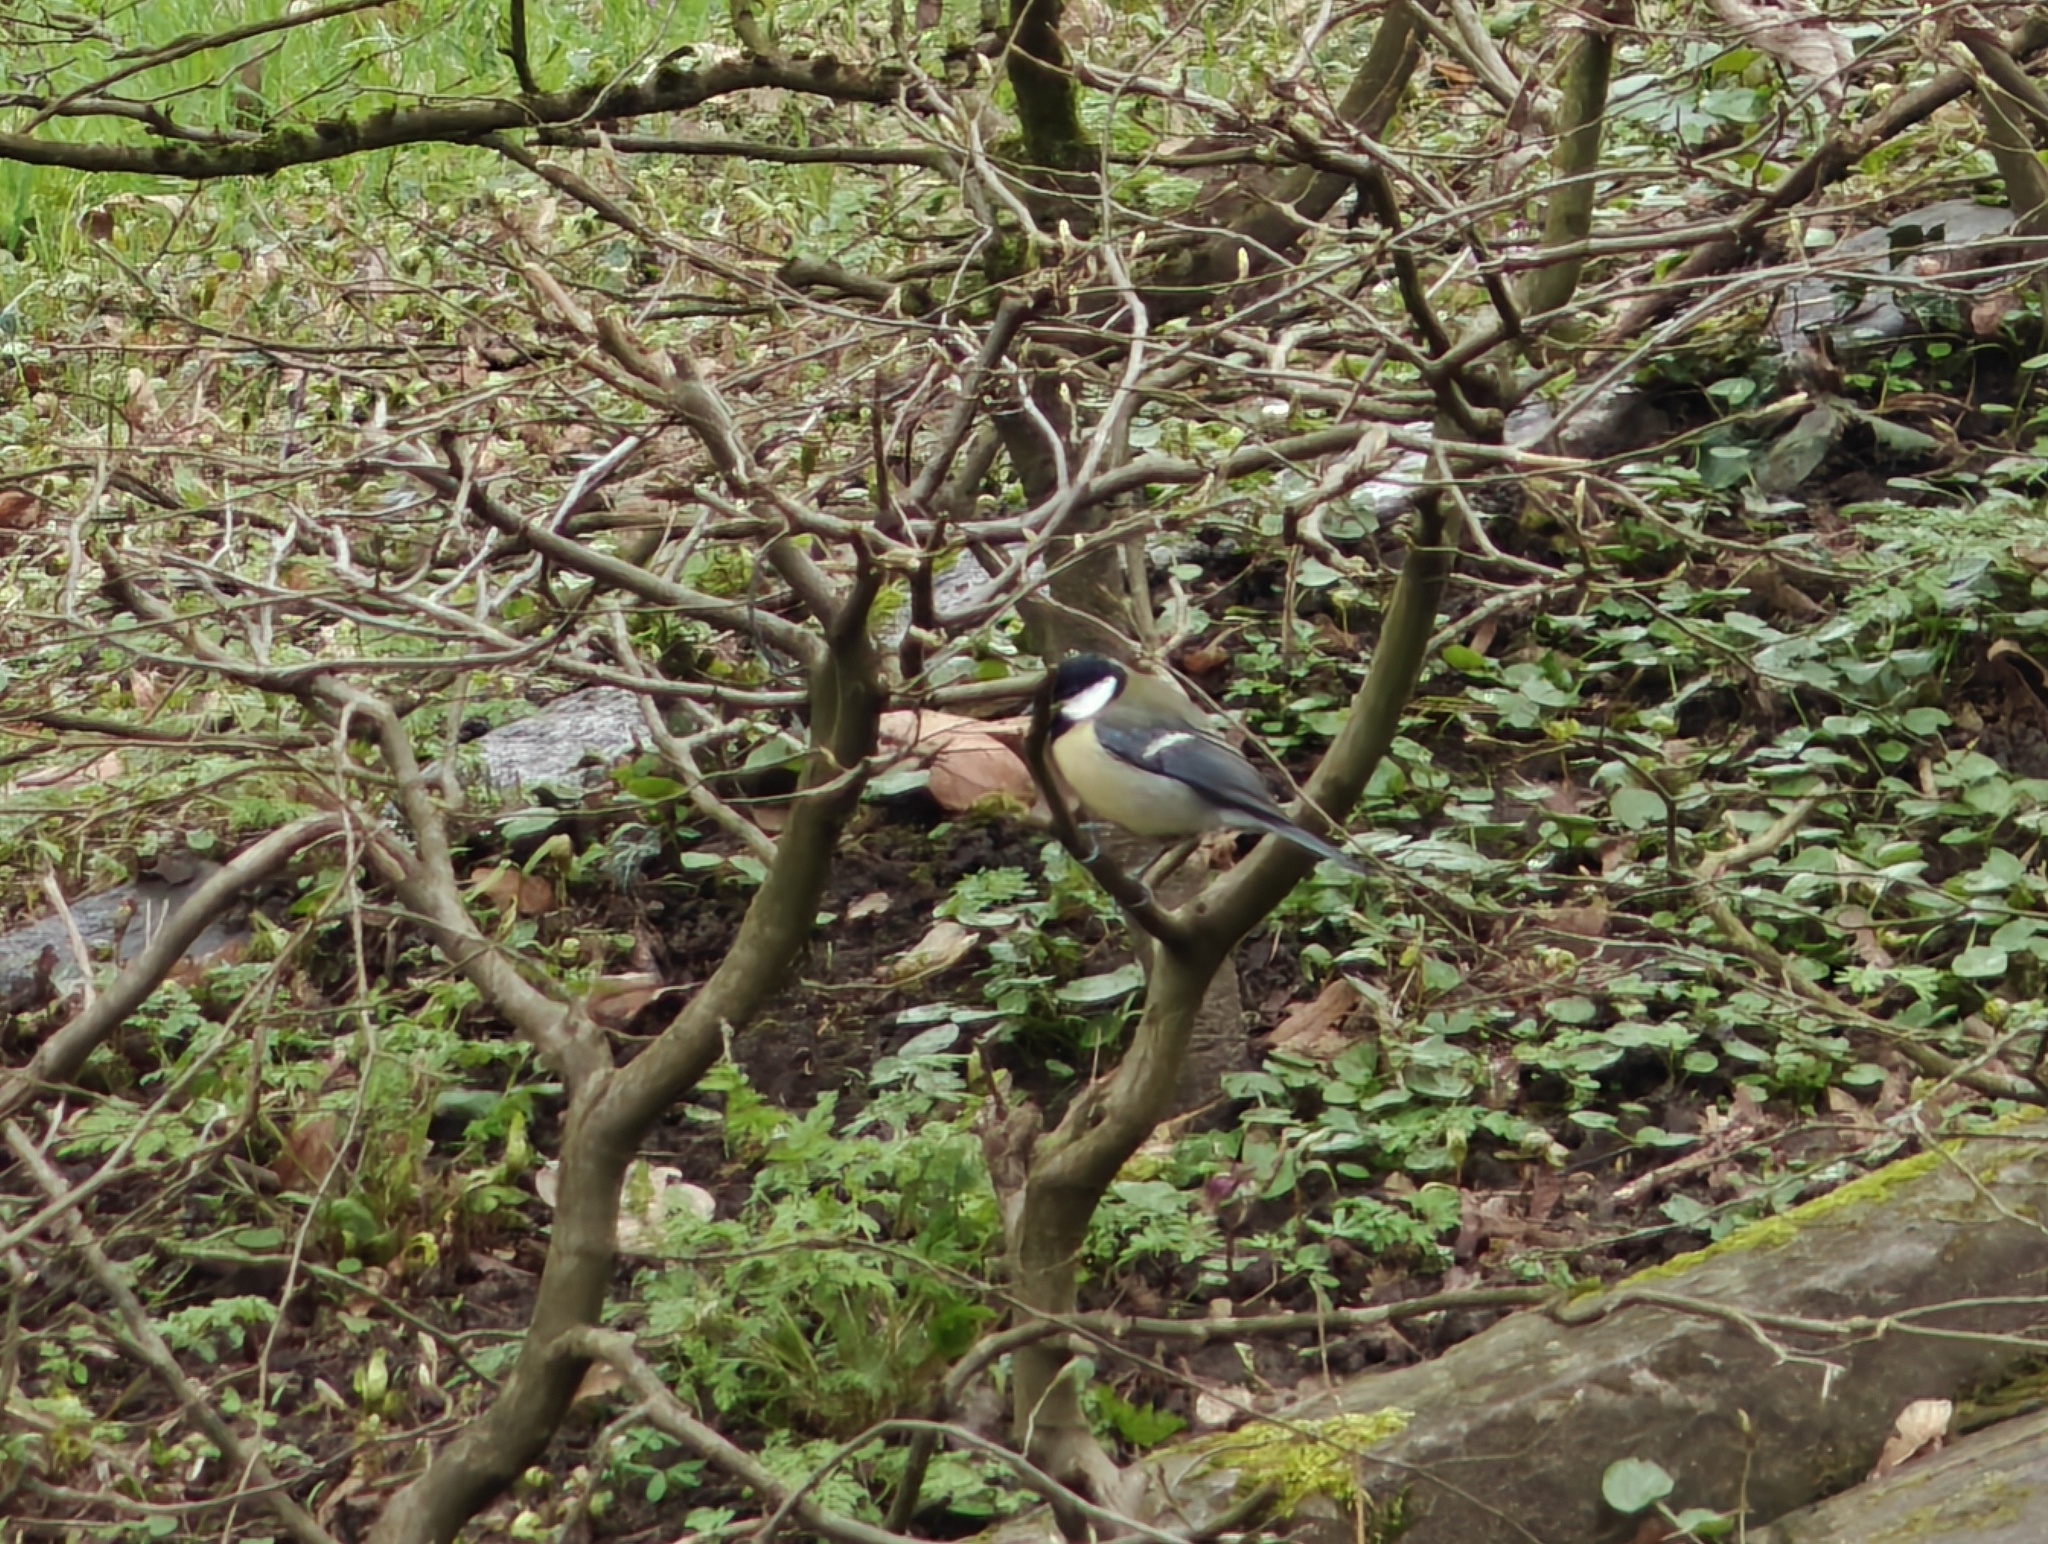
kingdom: Animalia
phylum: Chordata
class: Aves
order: Passeriformes
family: Paridae
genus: Parus
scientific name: Parus major
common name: Great tit
